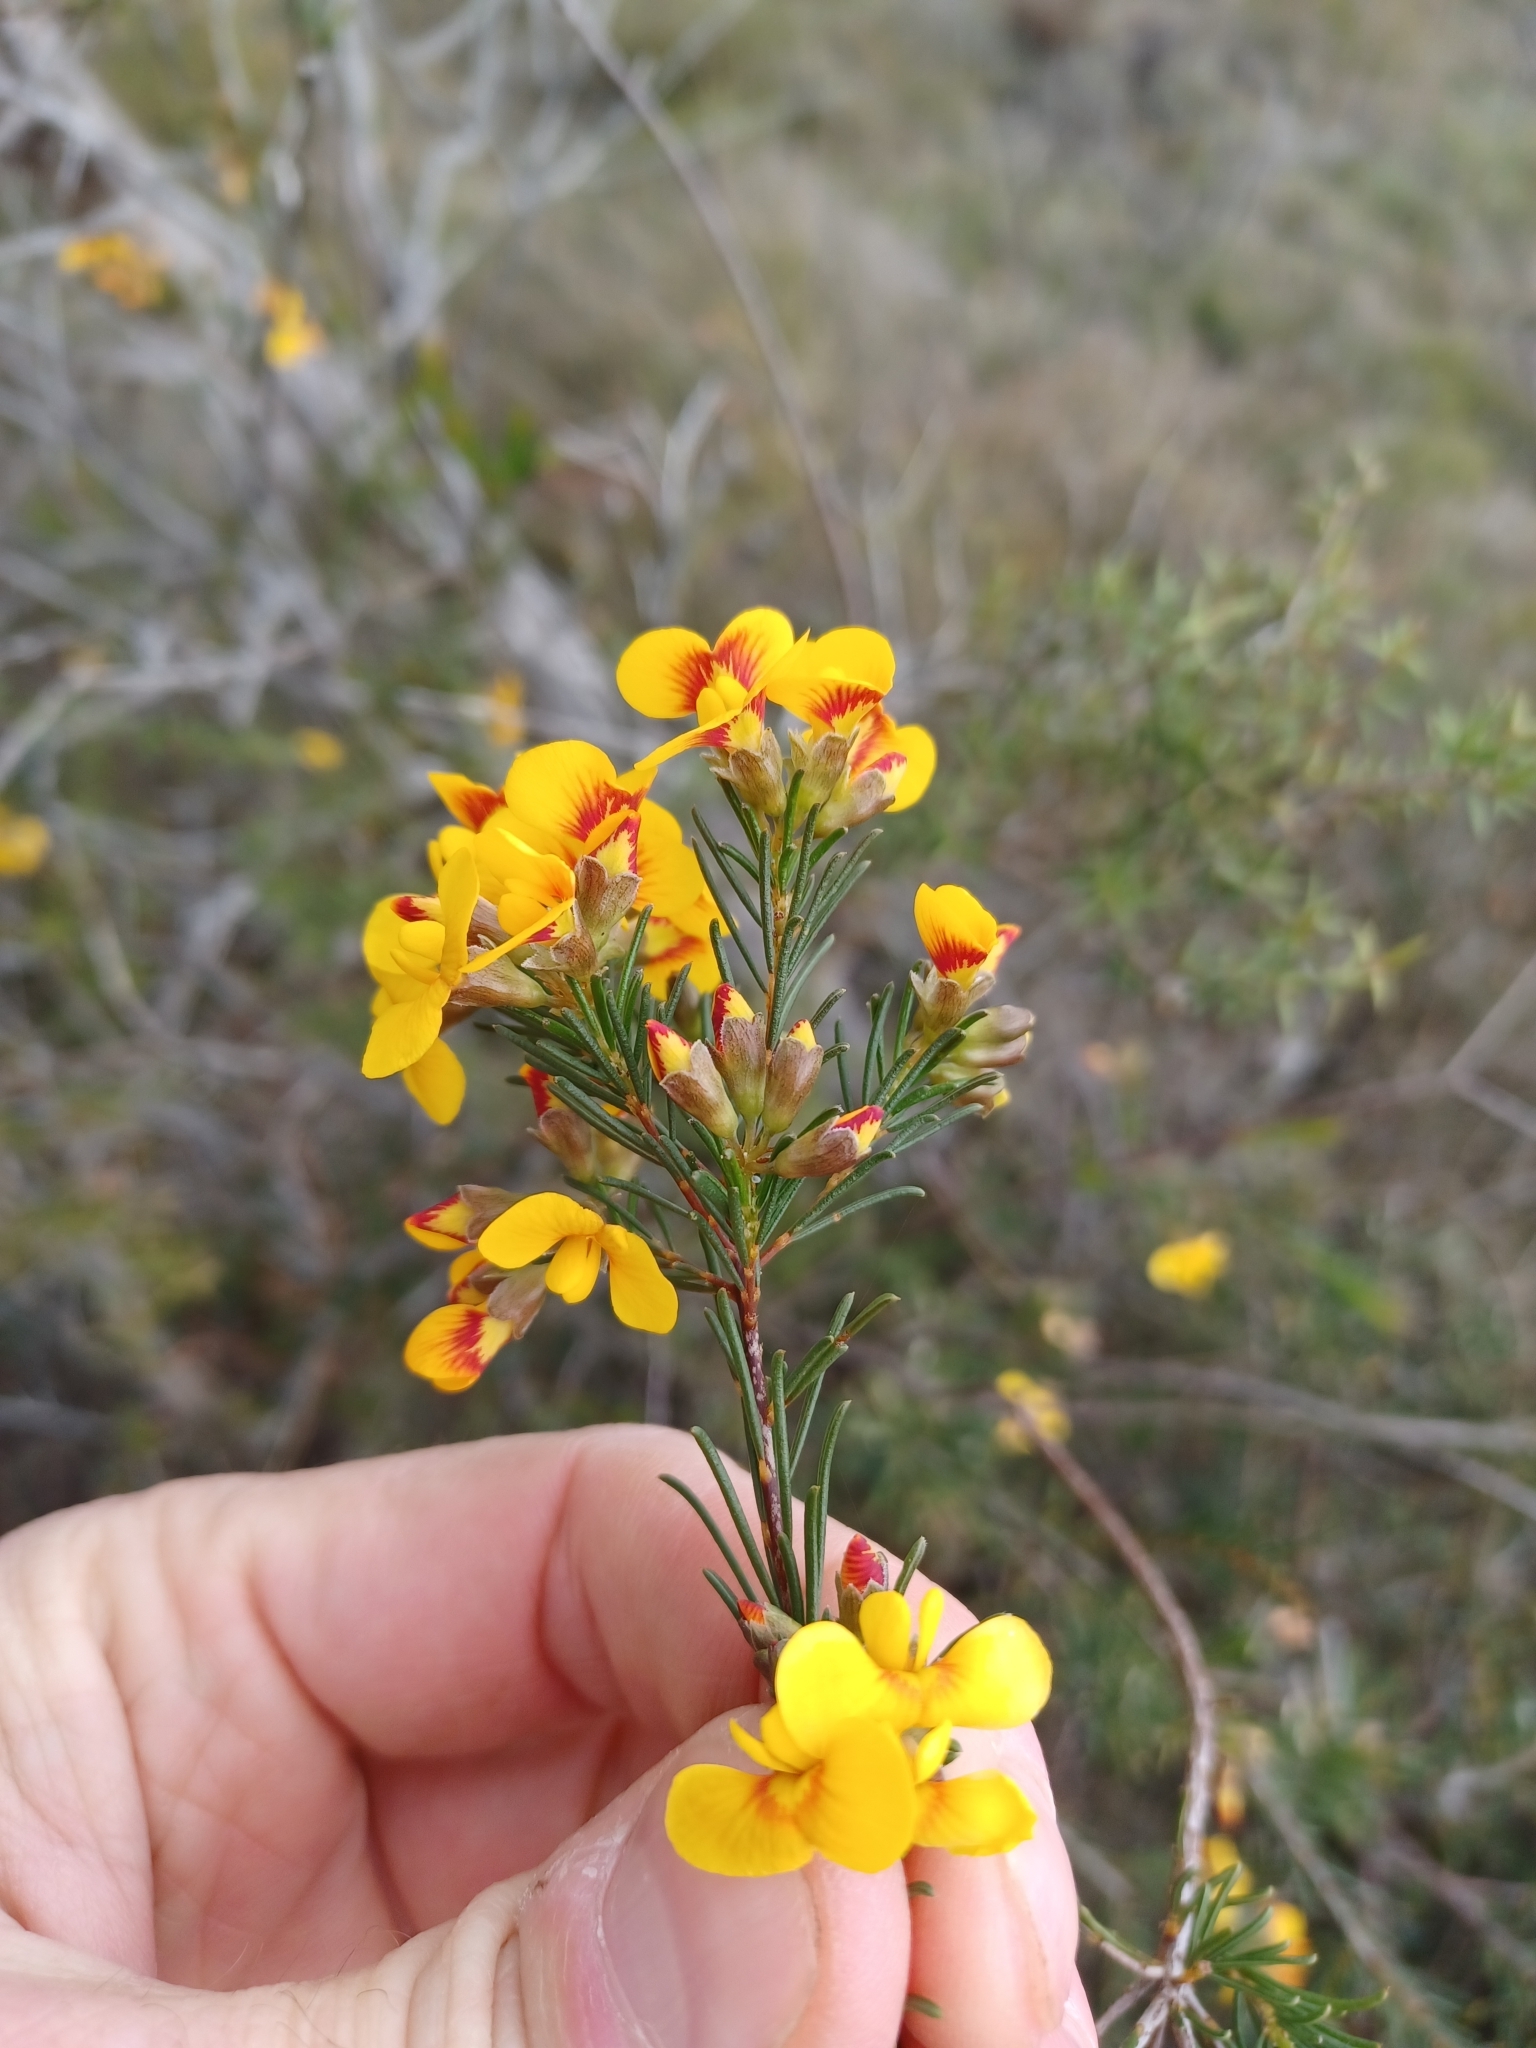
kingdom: Plantae
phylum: Tracheophyta
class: Magnoliopsida
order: Fabales
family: Fabaceae
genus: Dillwynia
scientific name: Dillwynia glaberrima
